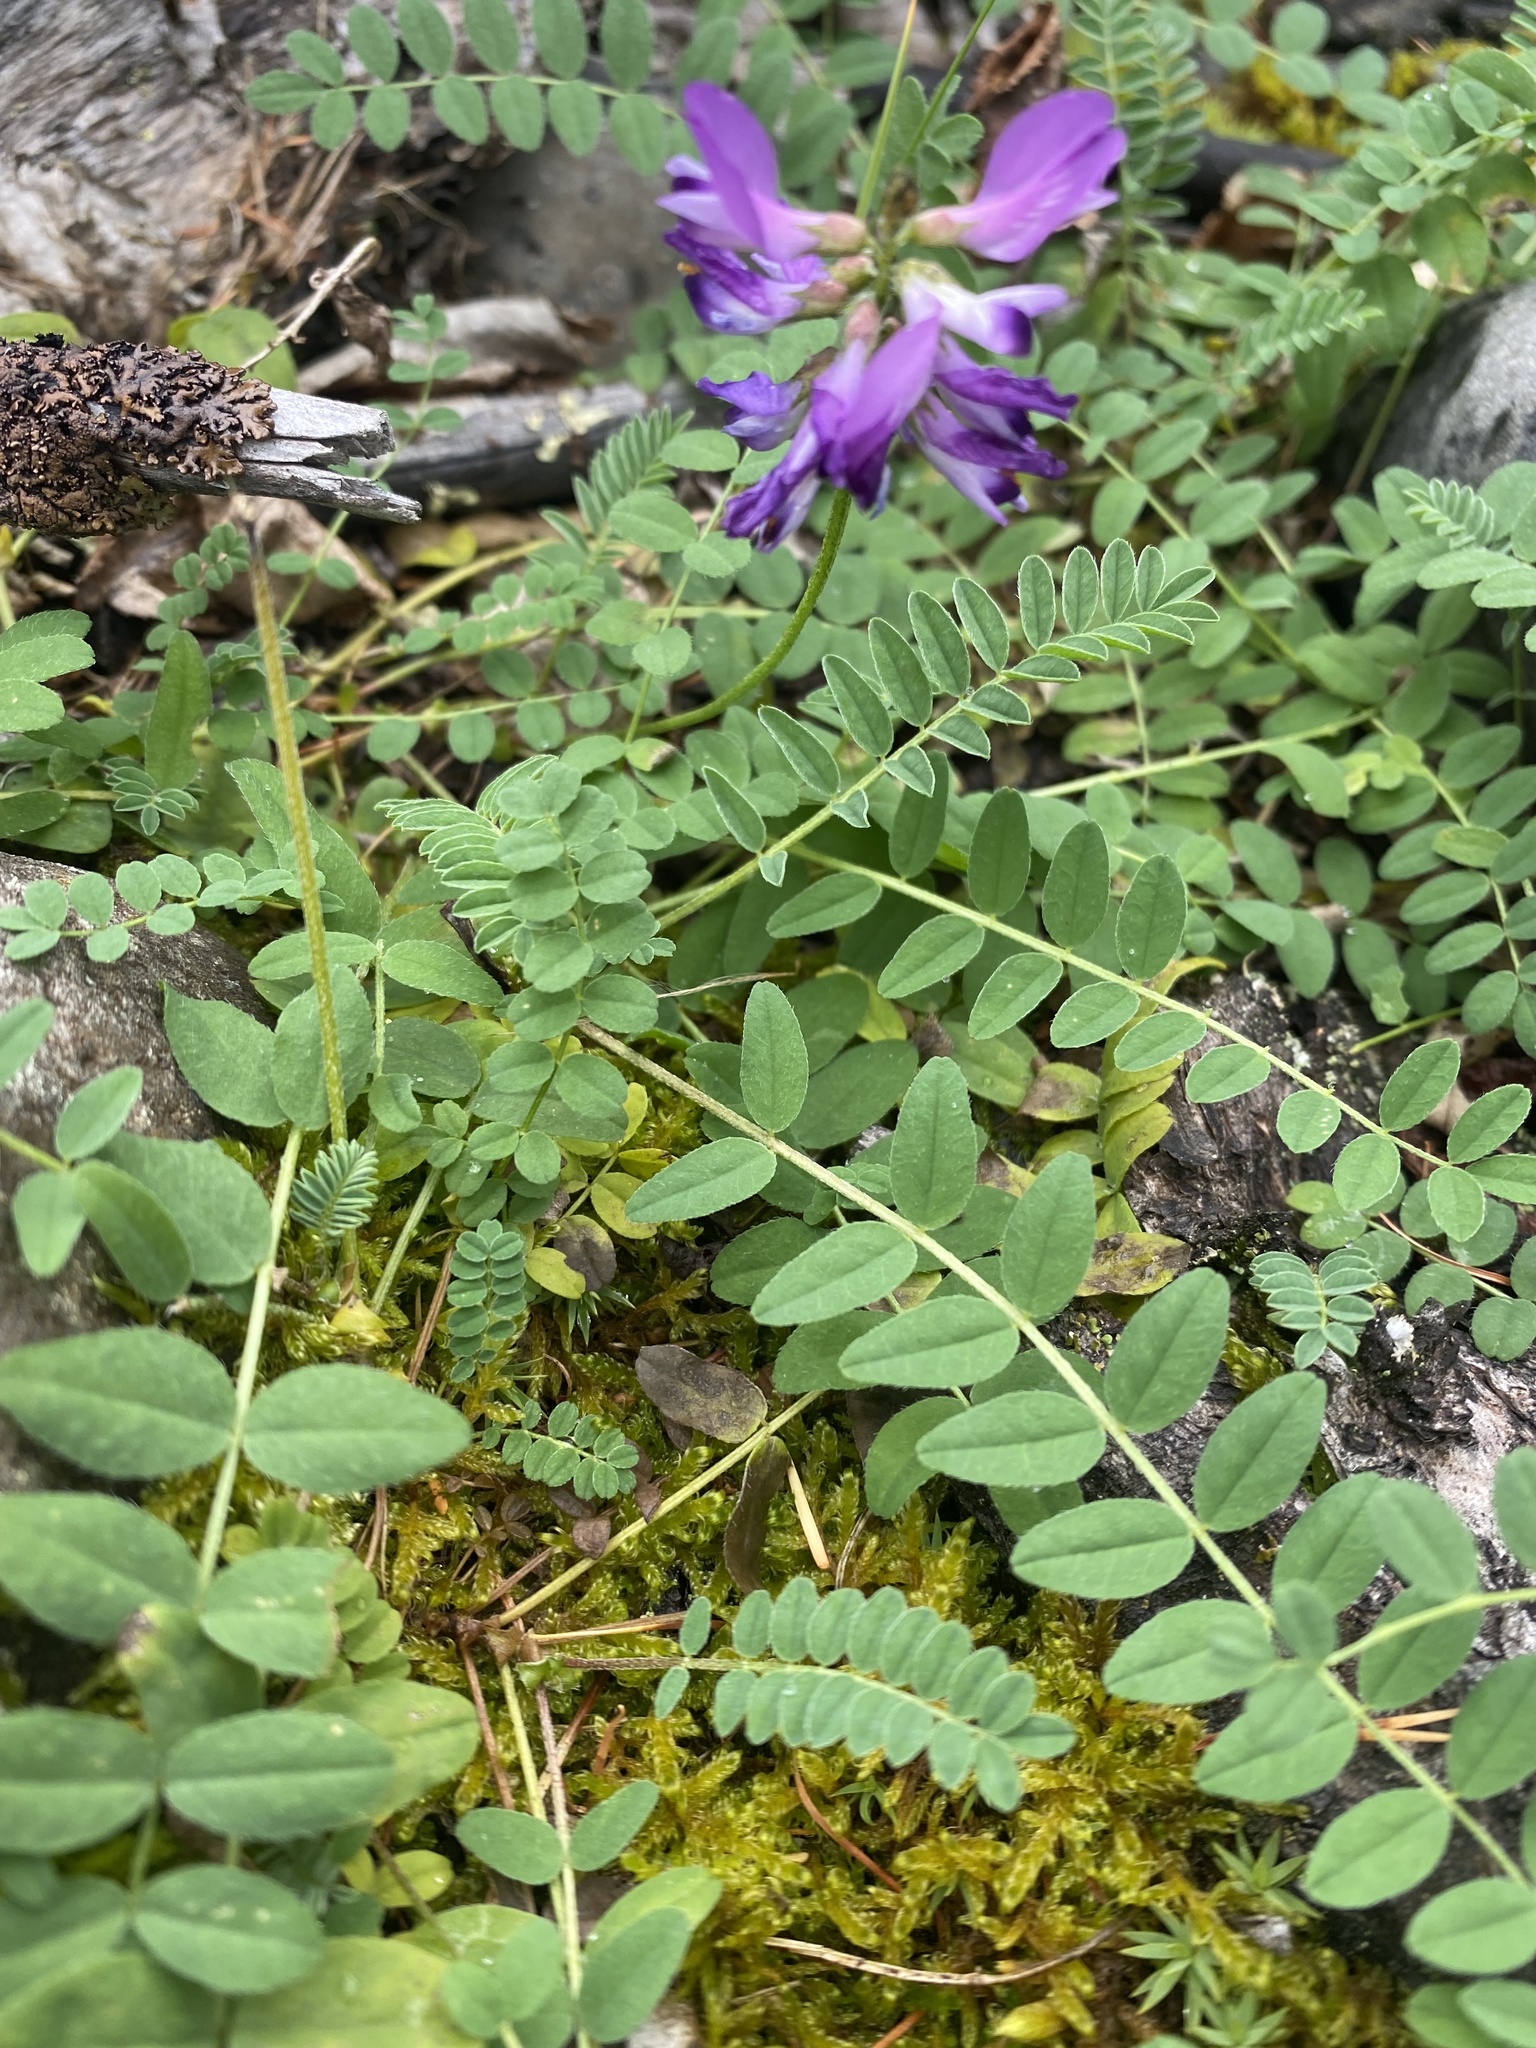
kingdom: Plantae
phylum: Tracheophyta
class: Magnoliopsida
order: Fabales
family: Fabaceae
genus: Astragalus
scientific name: Astragalus alpinus
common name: Alpine milk-vetch
